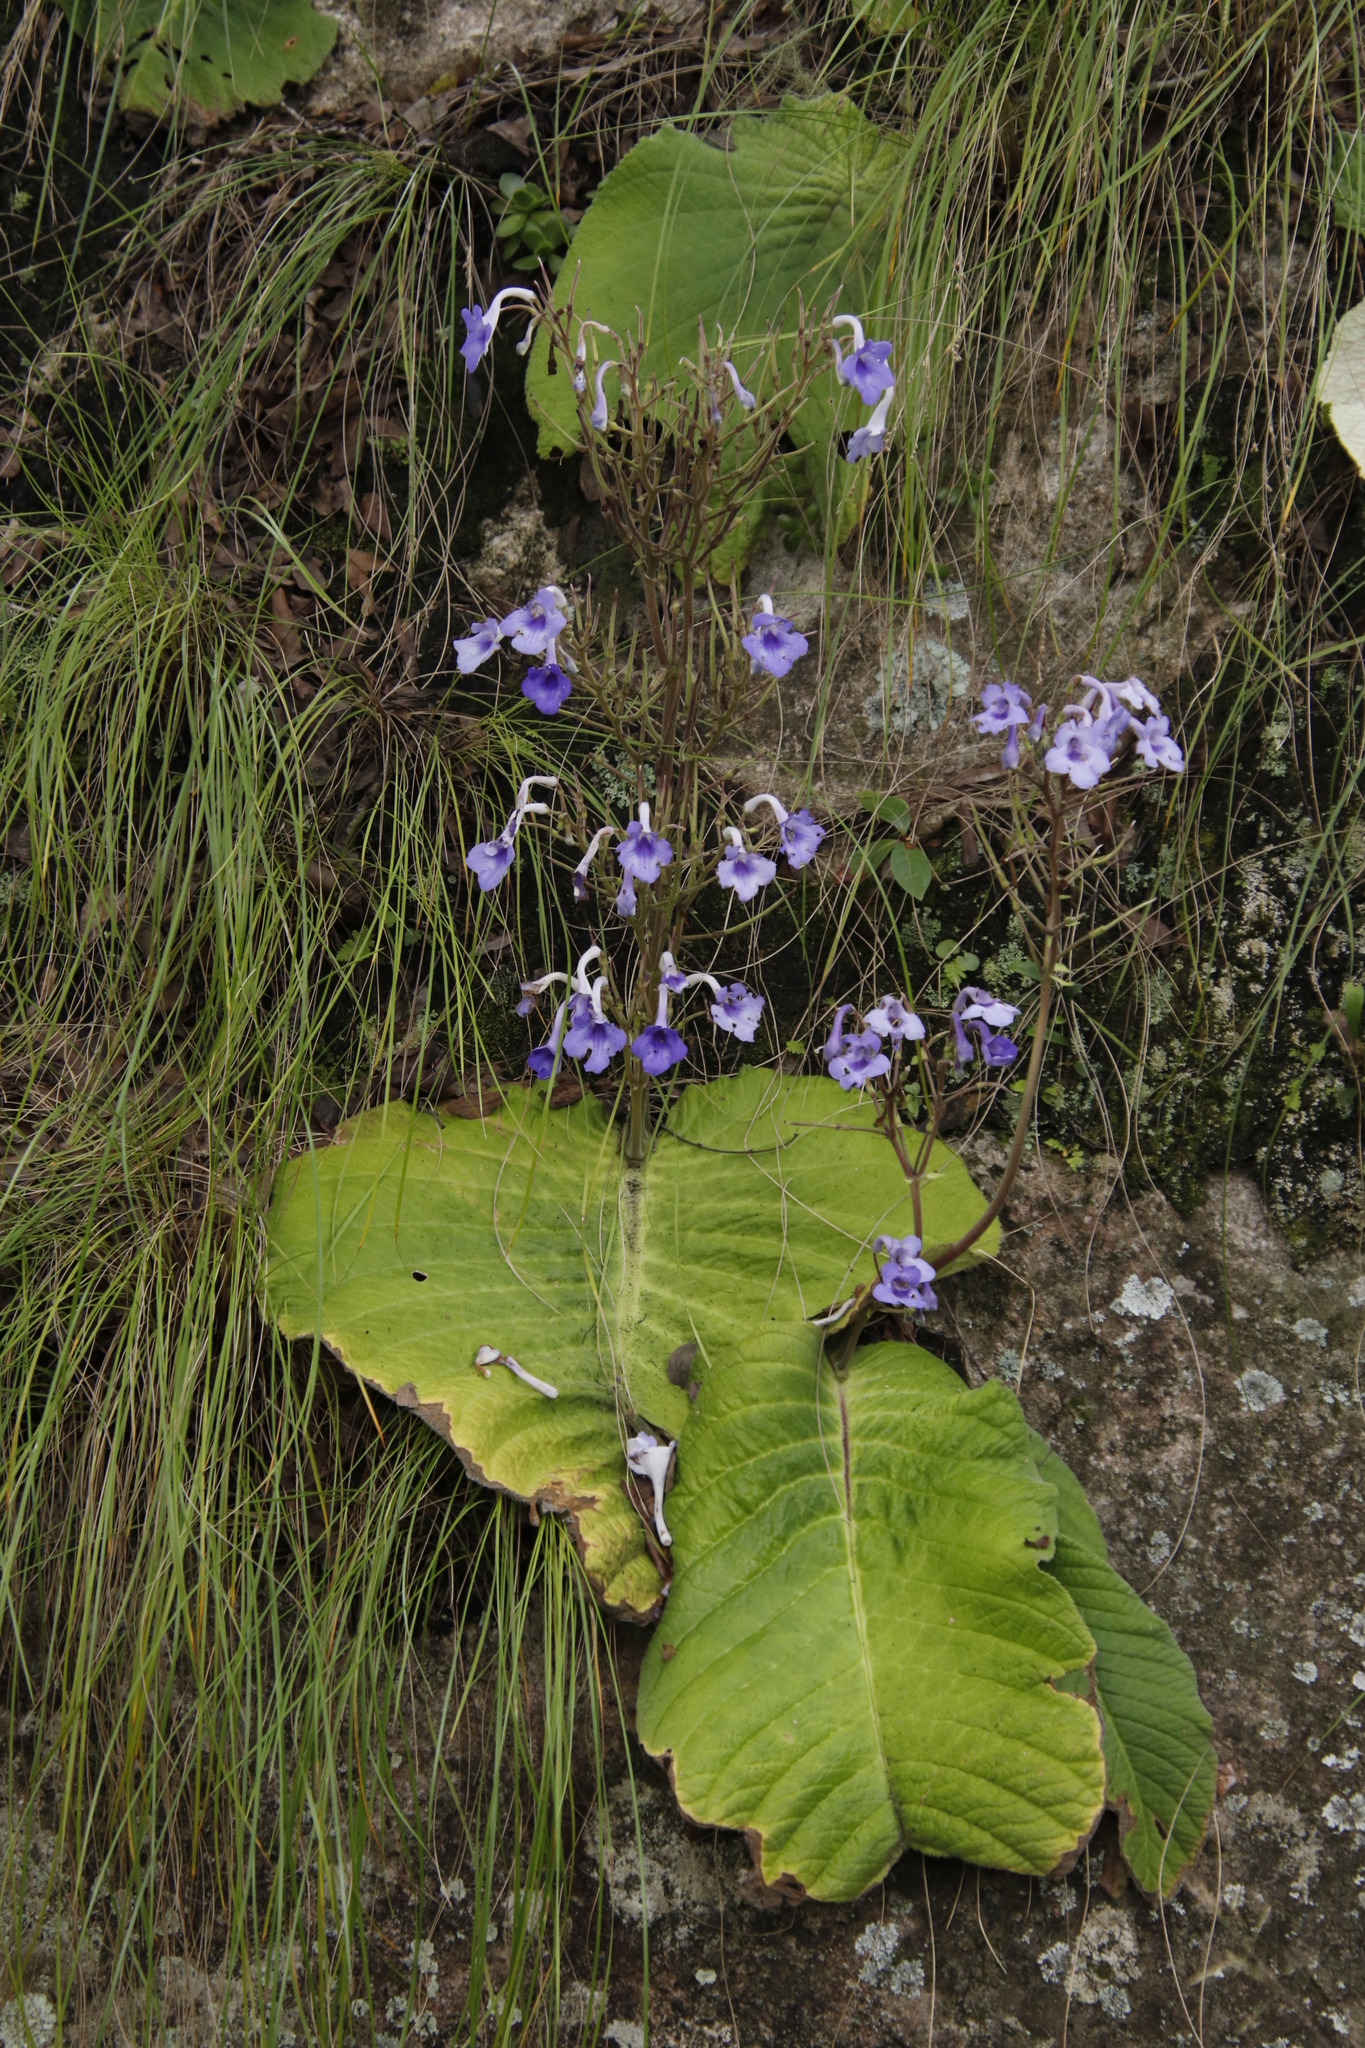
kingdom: Plantae
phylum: Tracheophyta
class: Magnoliopsida
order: Lamiales
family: Gesneriaceae
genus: Streptocarpus
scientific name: Streptocarpus eylesii
